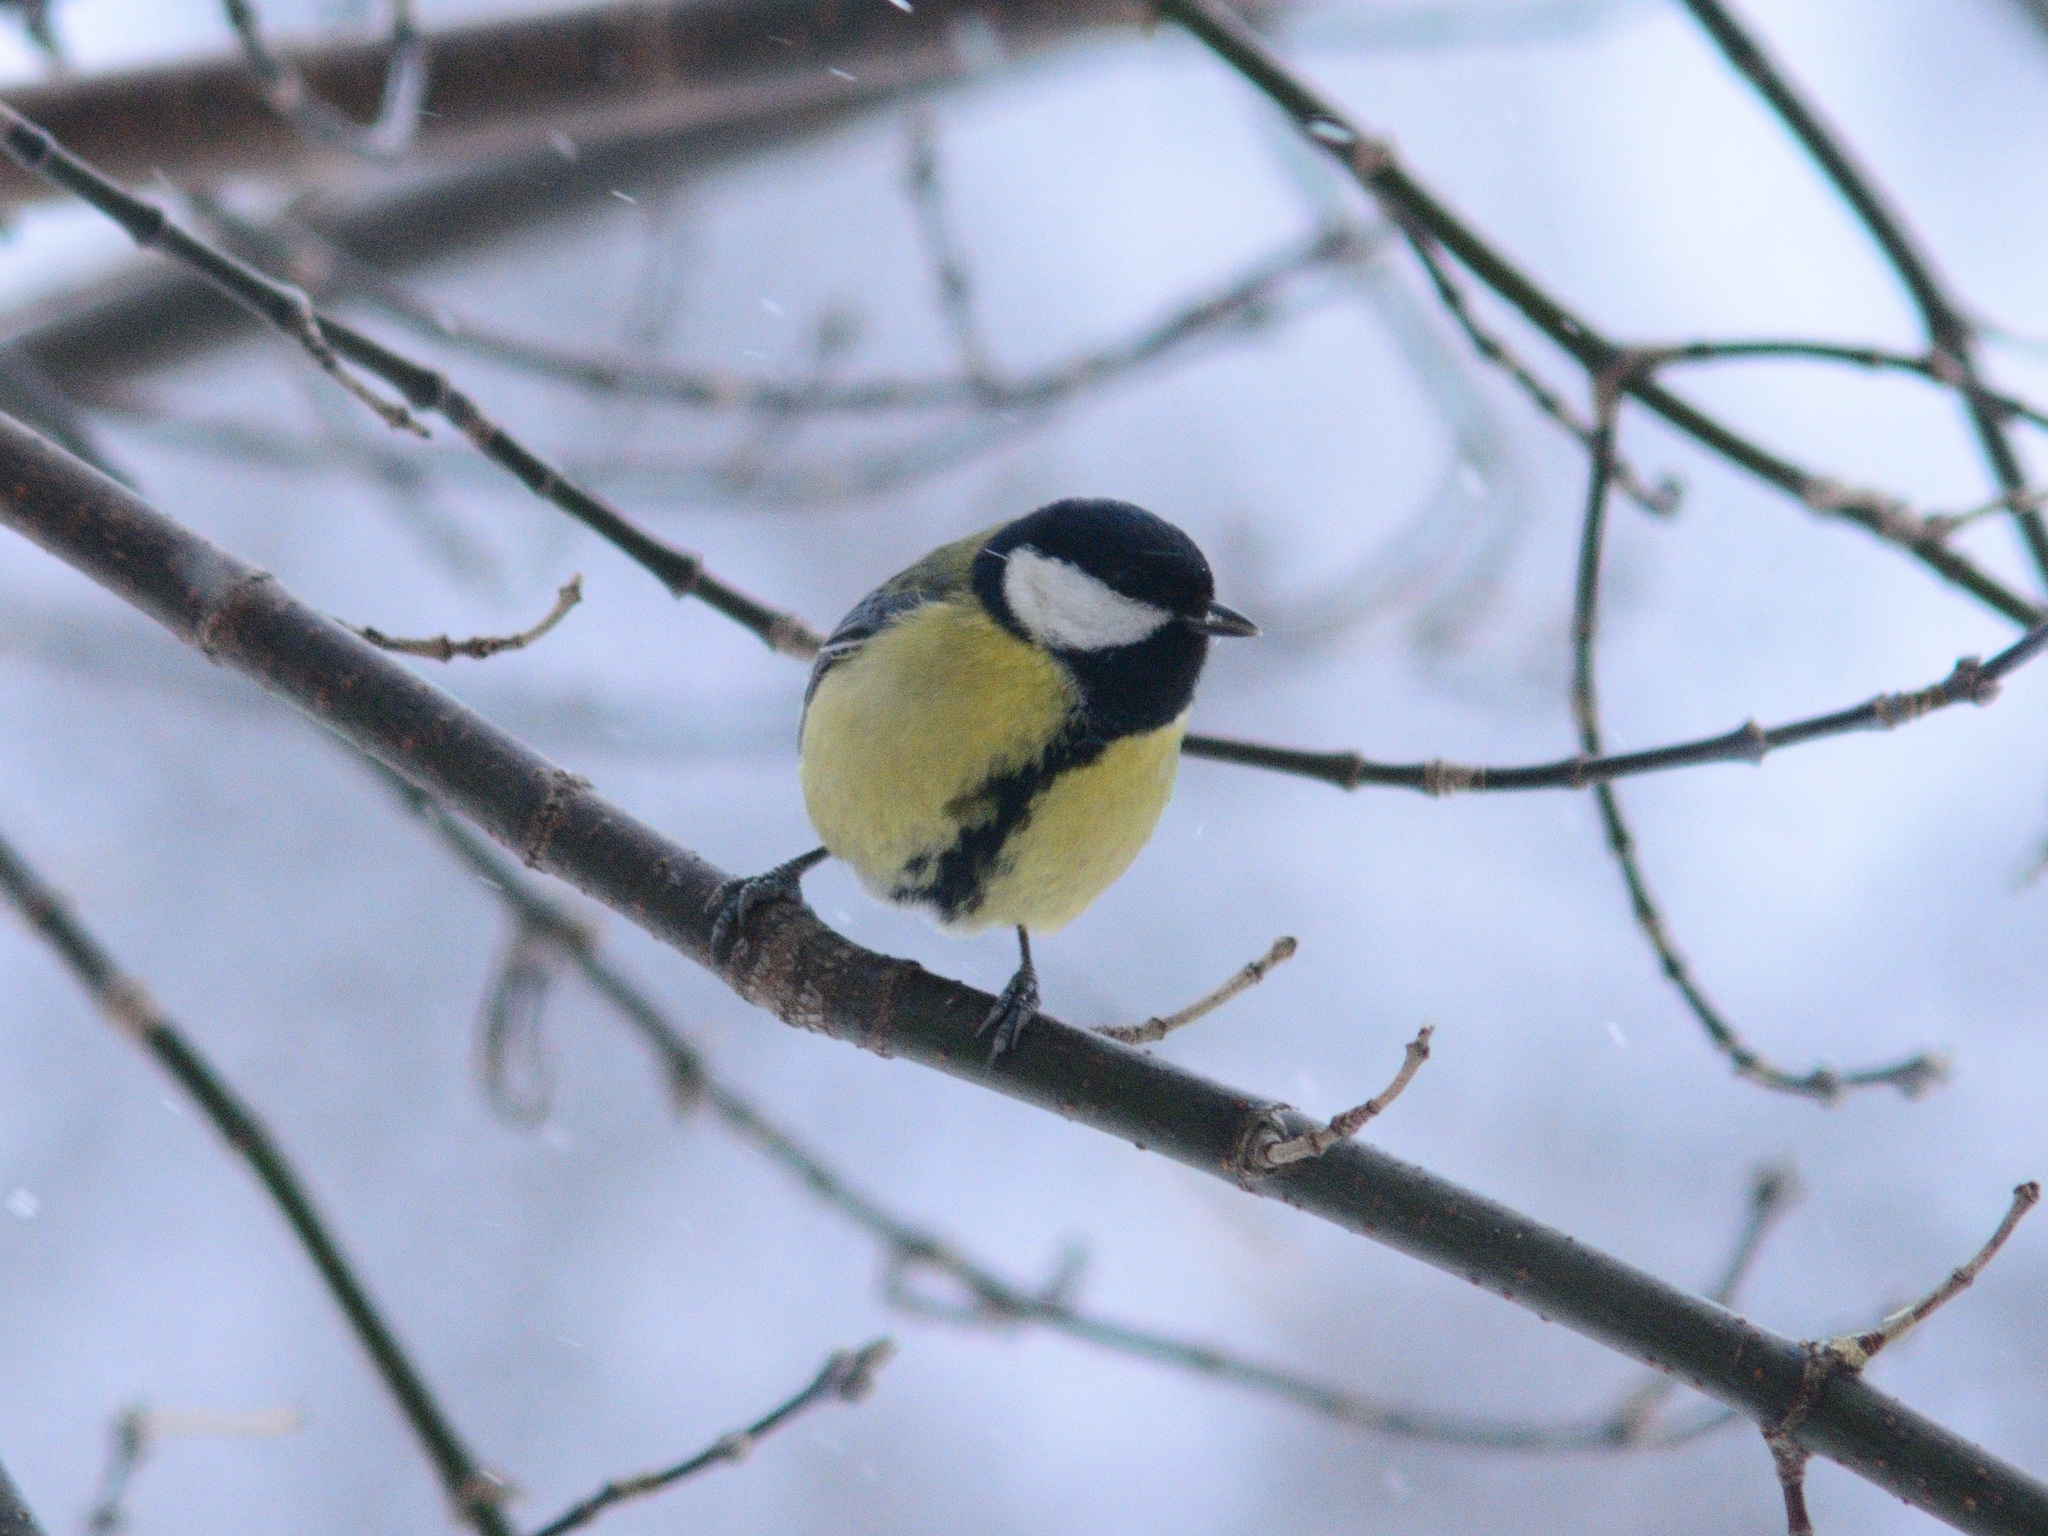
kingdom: Animalia
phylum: Chordata
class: Aves
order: Passeriformes
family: Paridae
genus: Parus
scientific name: Parus major
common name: Great tit
